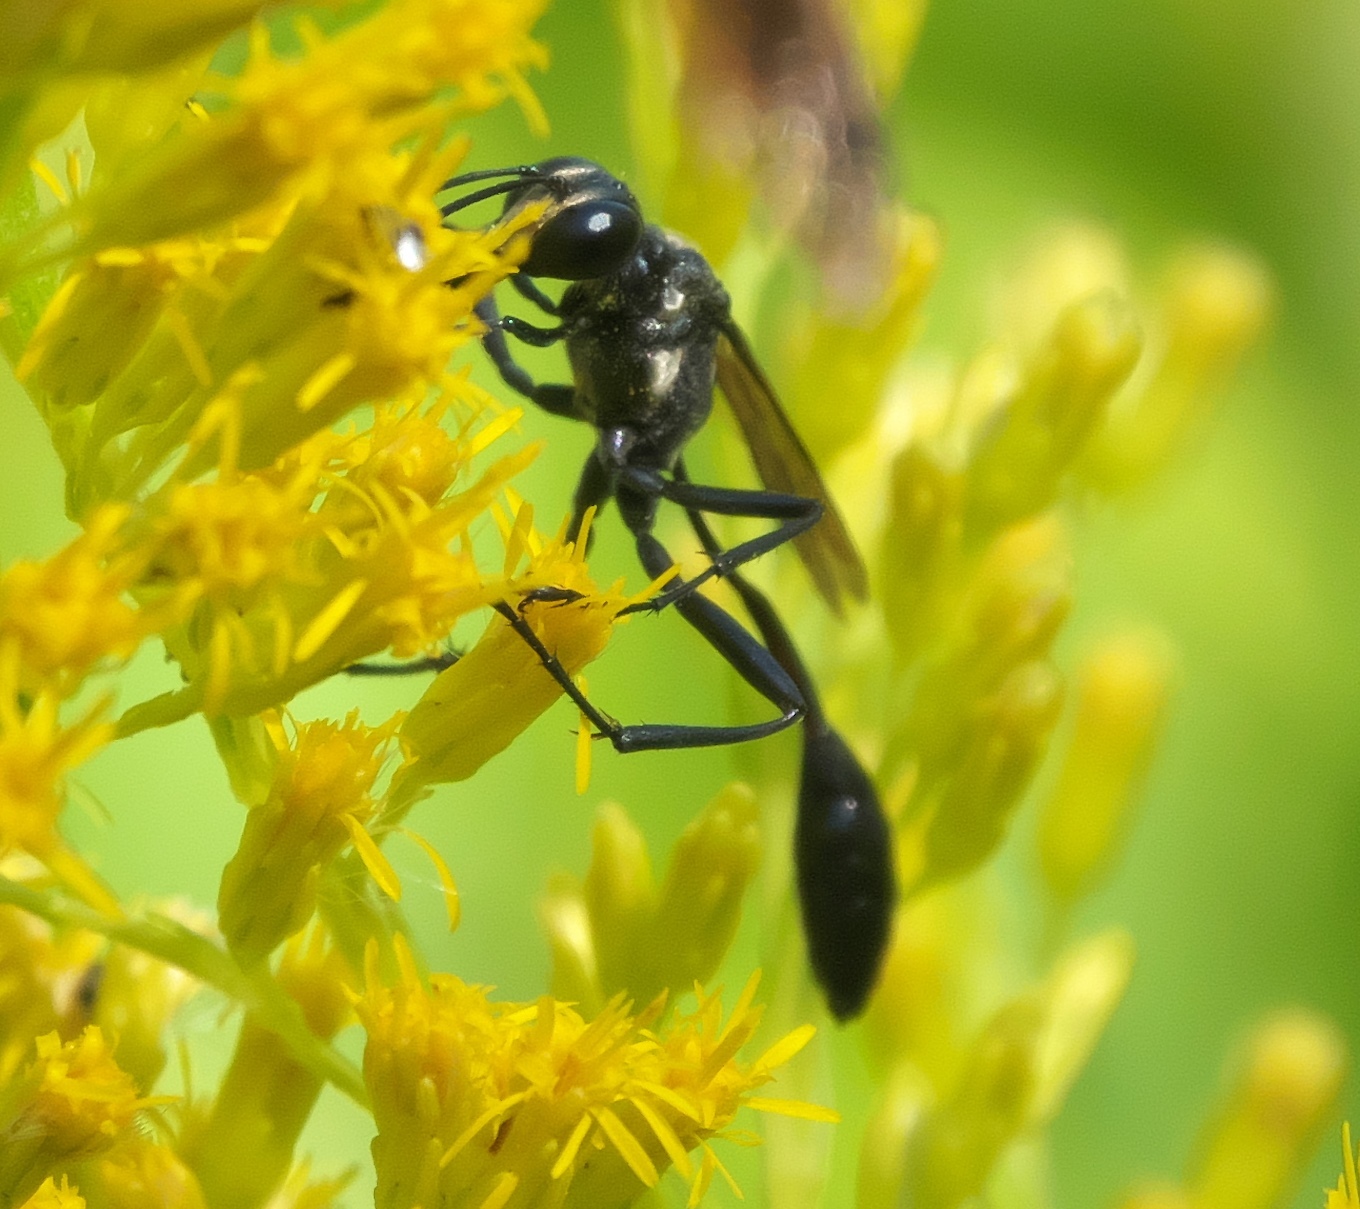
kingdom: Animalia
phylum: Arthropoda
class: Insecta
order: Hymenoptera
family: Sphecidae
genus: Eremnophila
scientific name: Eremnophila aureonotata
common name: Gold-marked thread-waisted wasp
